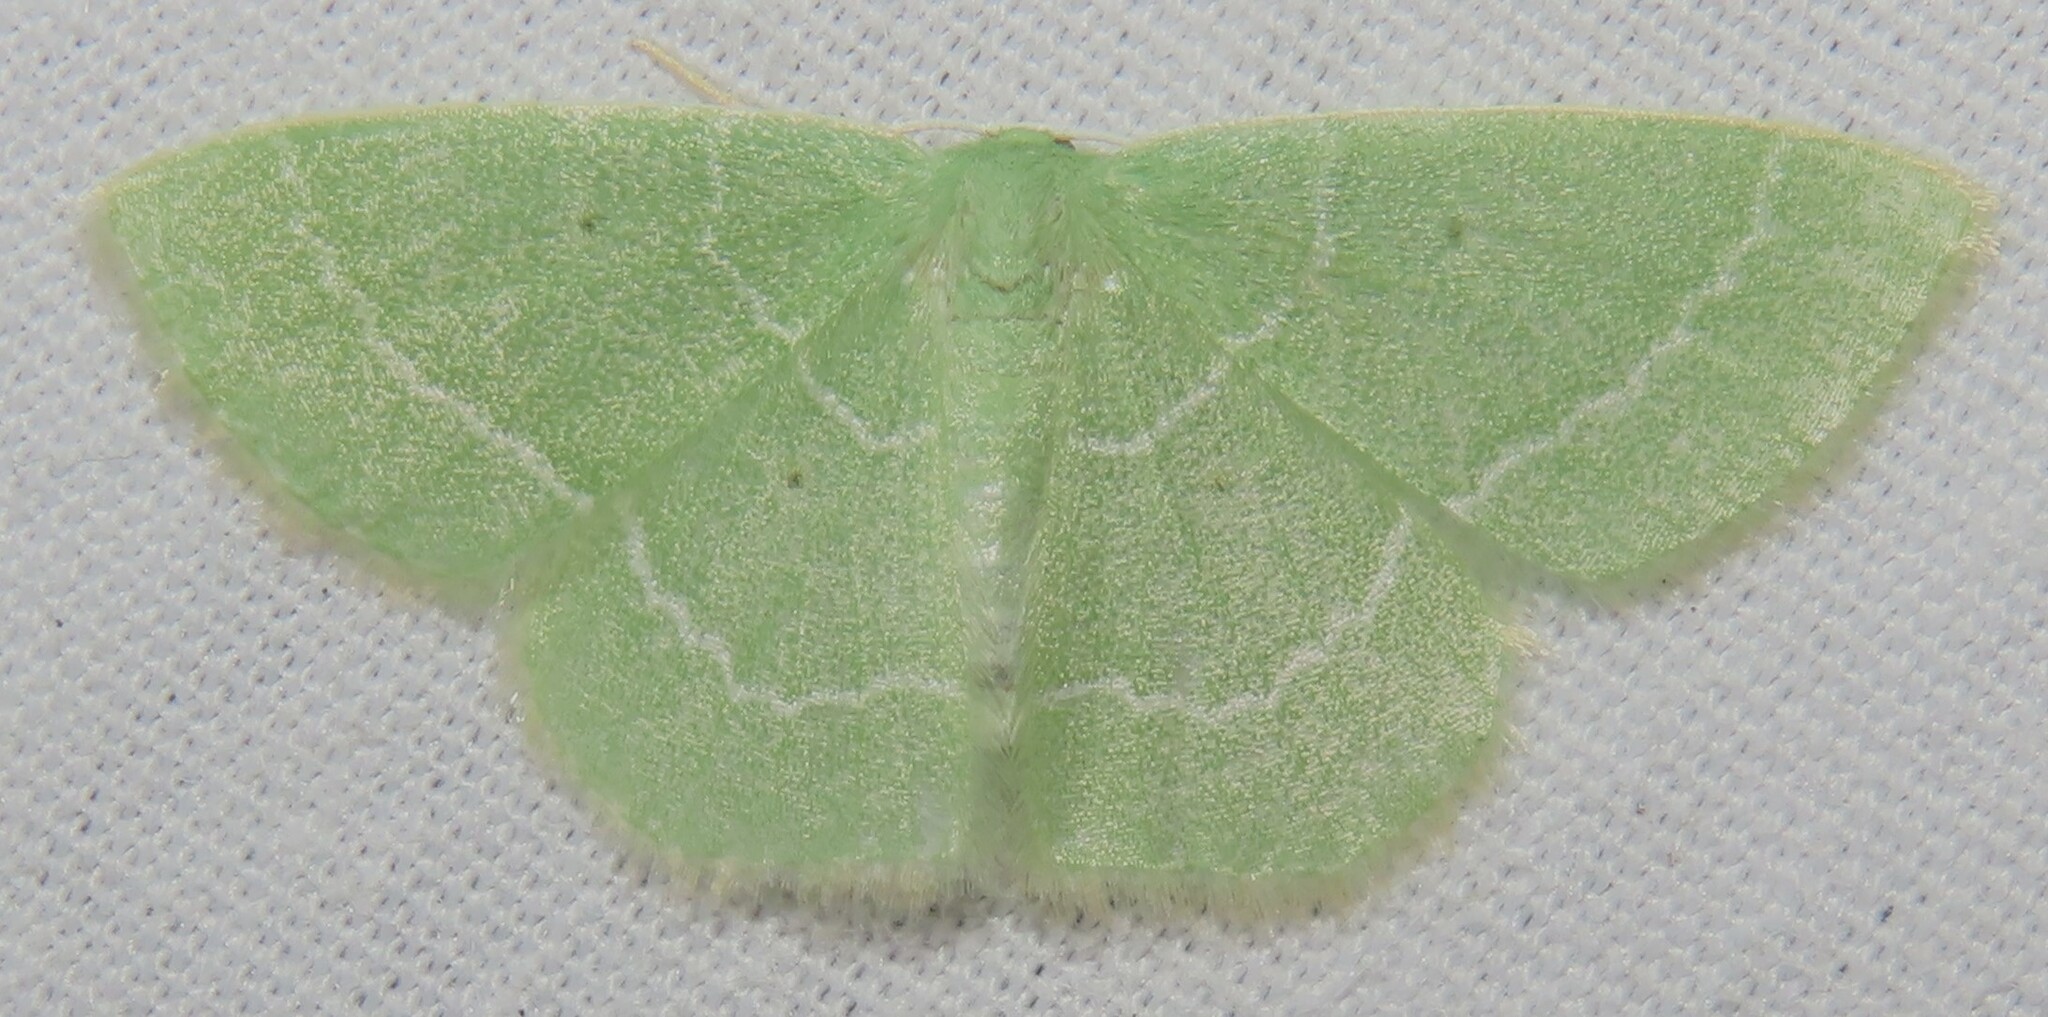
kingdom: Animalia
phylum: Arthropoda
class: Insecta
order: Lepidoptera
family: Geometridae
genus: Nemoria
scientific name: Nemoria elfa
